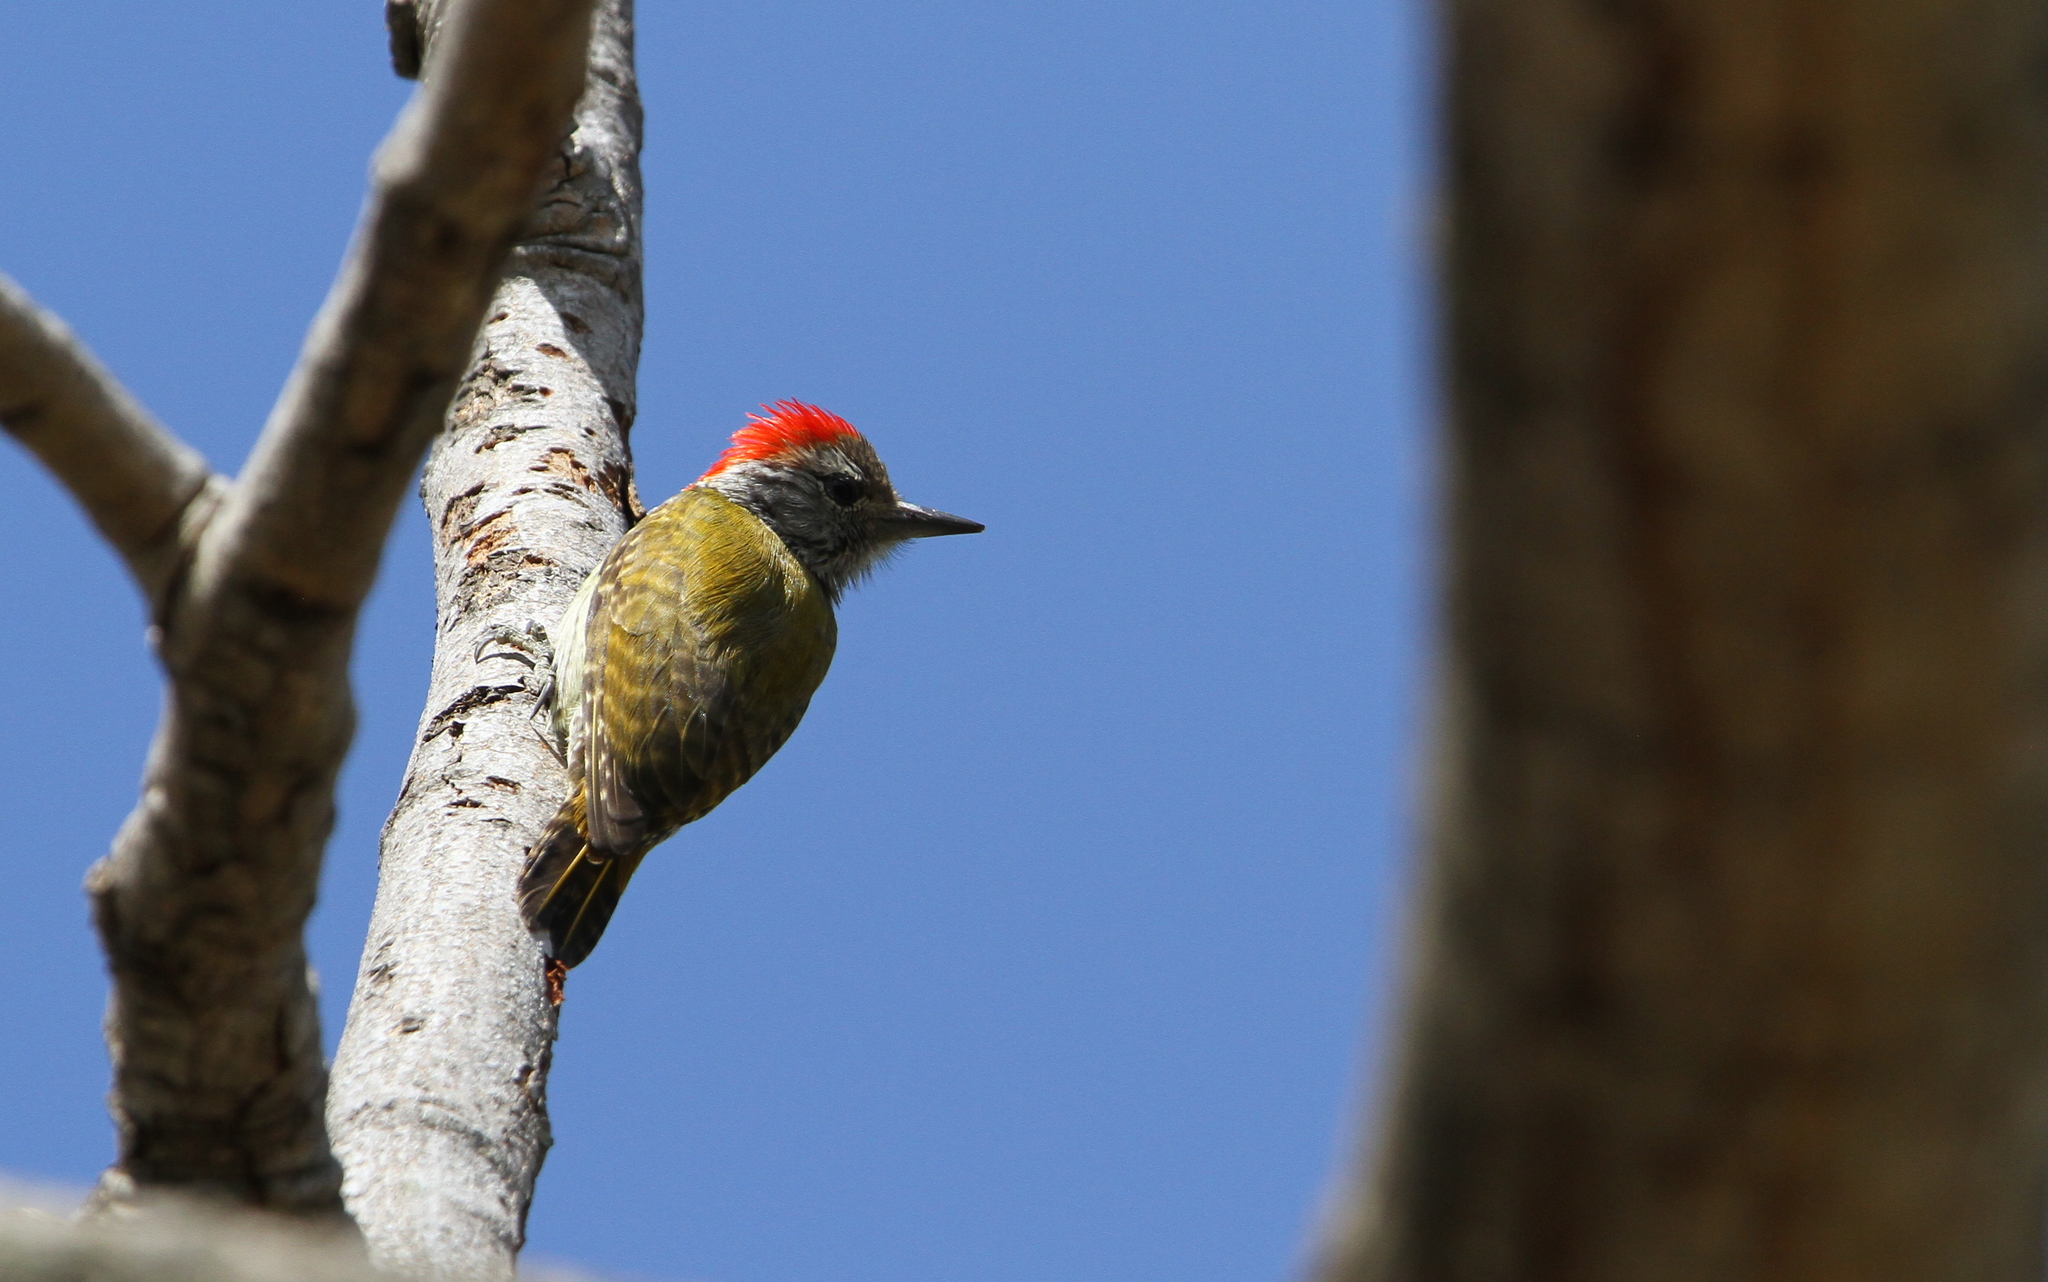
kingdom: Animalia
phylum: Chordata
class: Aves
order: Piciformes
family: Picidae
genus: Dendropicos
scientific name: Dendropicos fuscescens
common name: Cardinal woodpecker
